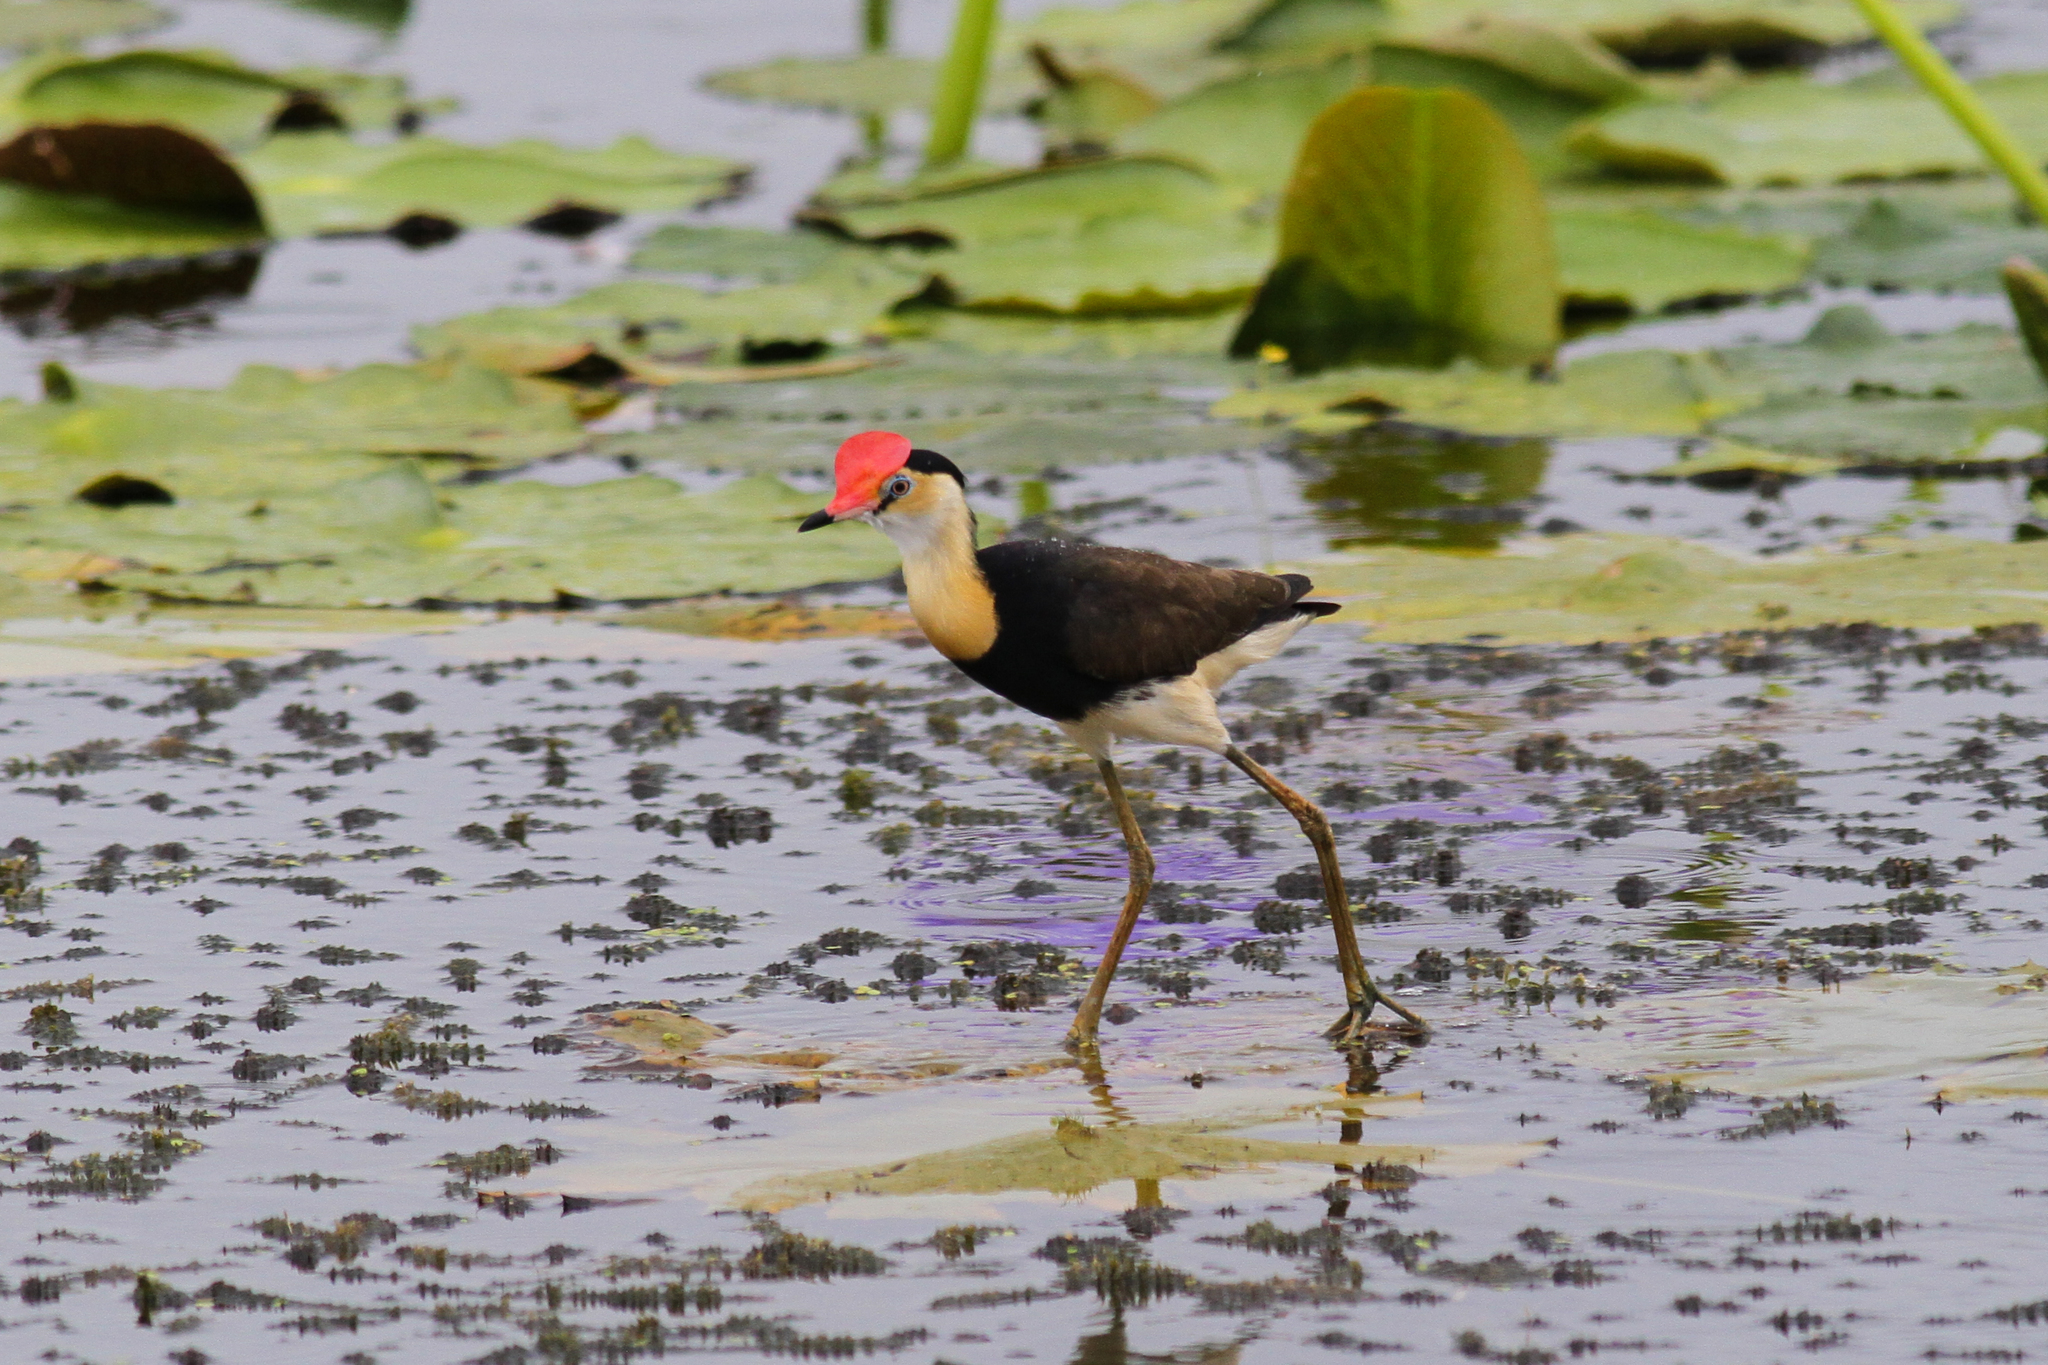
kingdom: Animalia
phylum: Chordata
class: Aves
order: Charadriiformes
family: Jacanidae
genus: Irediparra
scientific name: Irediparra gallinacea
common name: Comb-crested jacana
